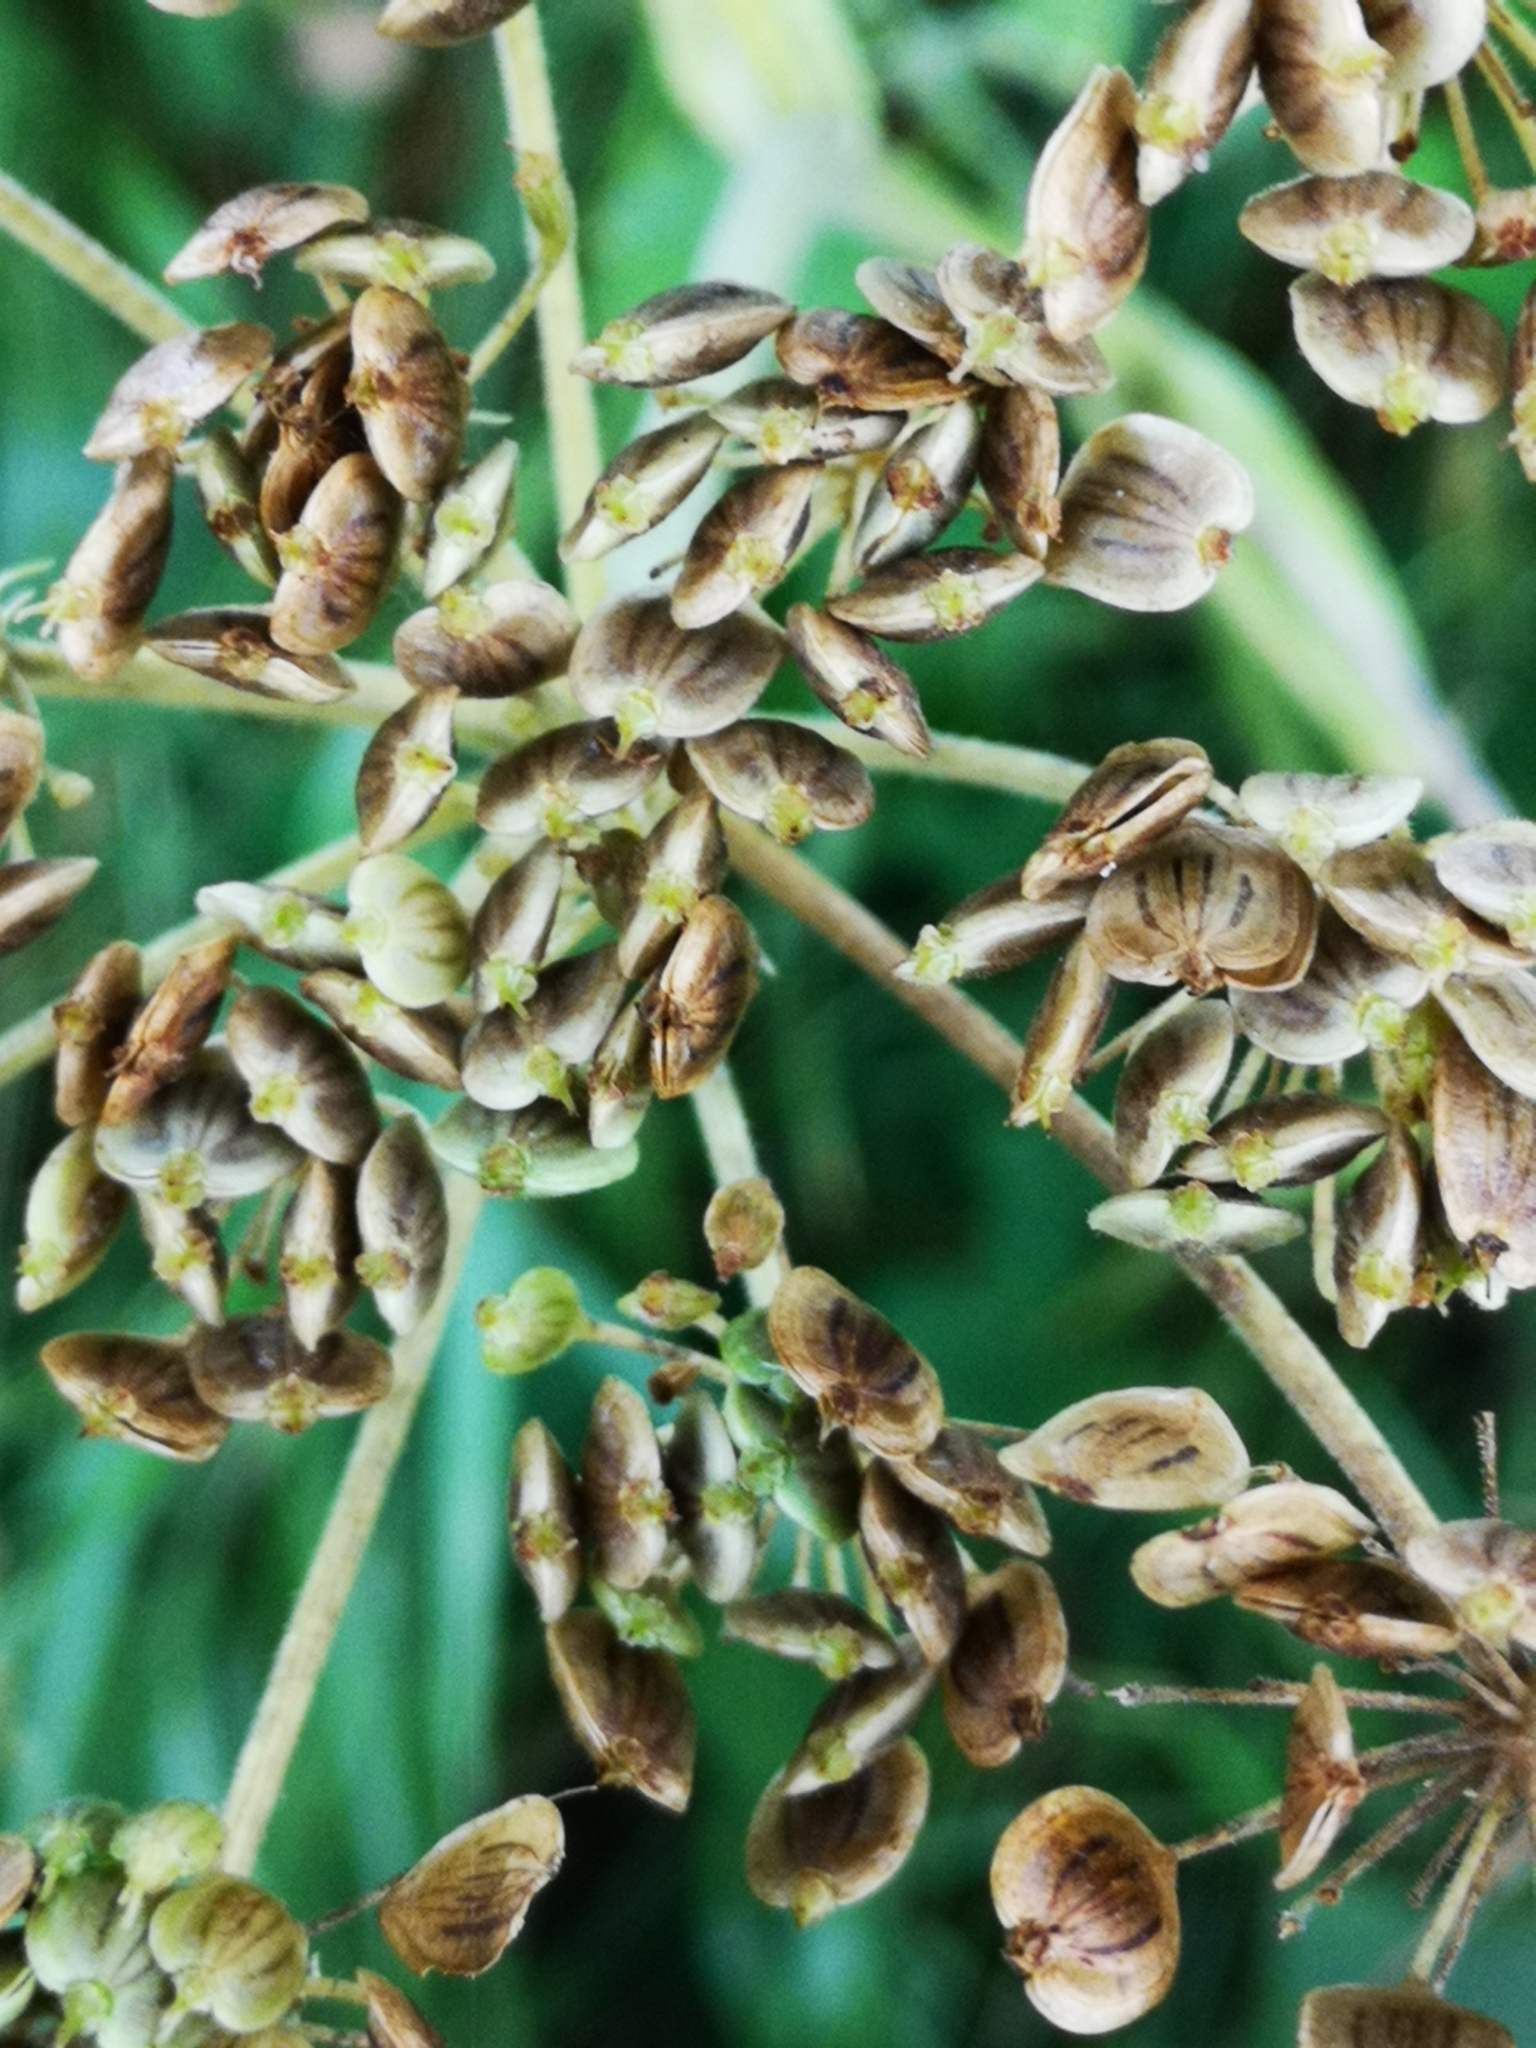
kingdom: Plantae
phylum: Tracheophyta
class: Magnoliopsida
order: Apiales
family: Apiaceae
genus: Heracleum
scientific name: Heracleum sphondylium
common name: Hogweed
